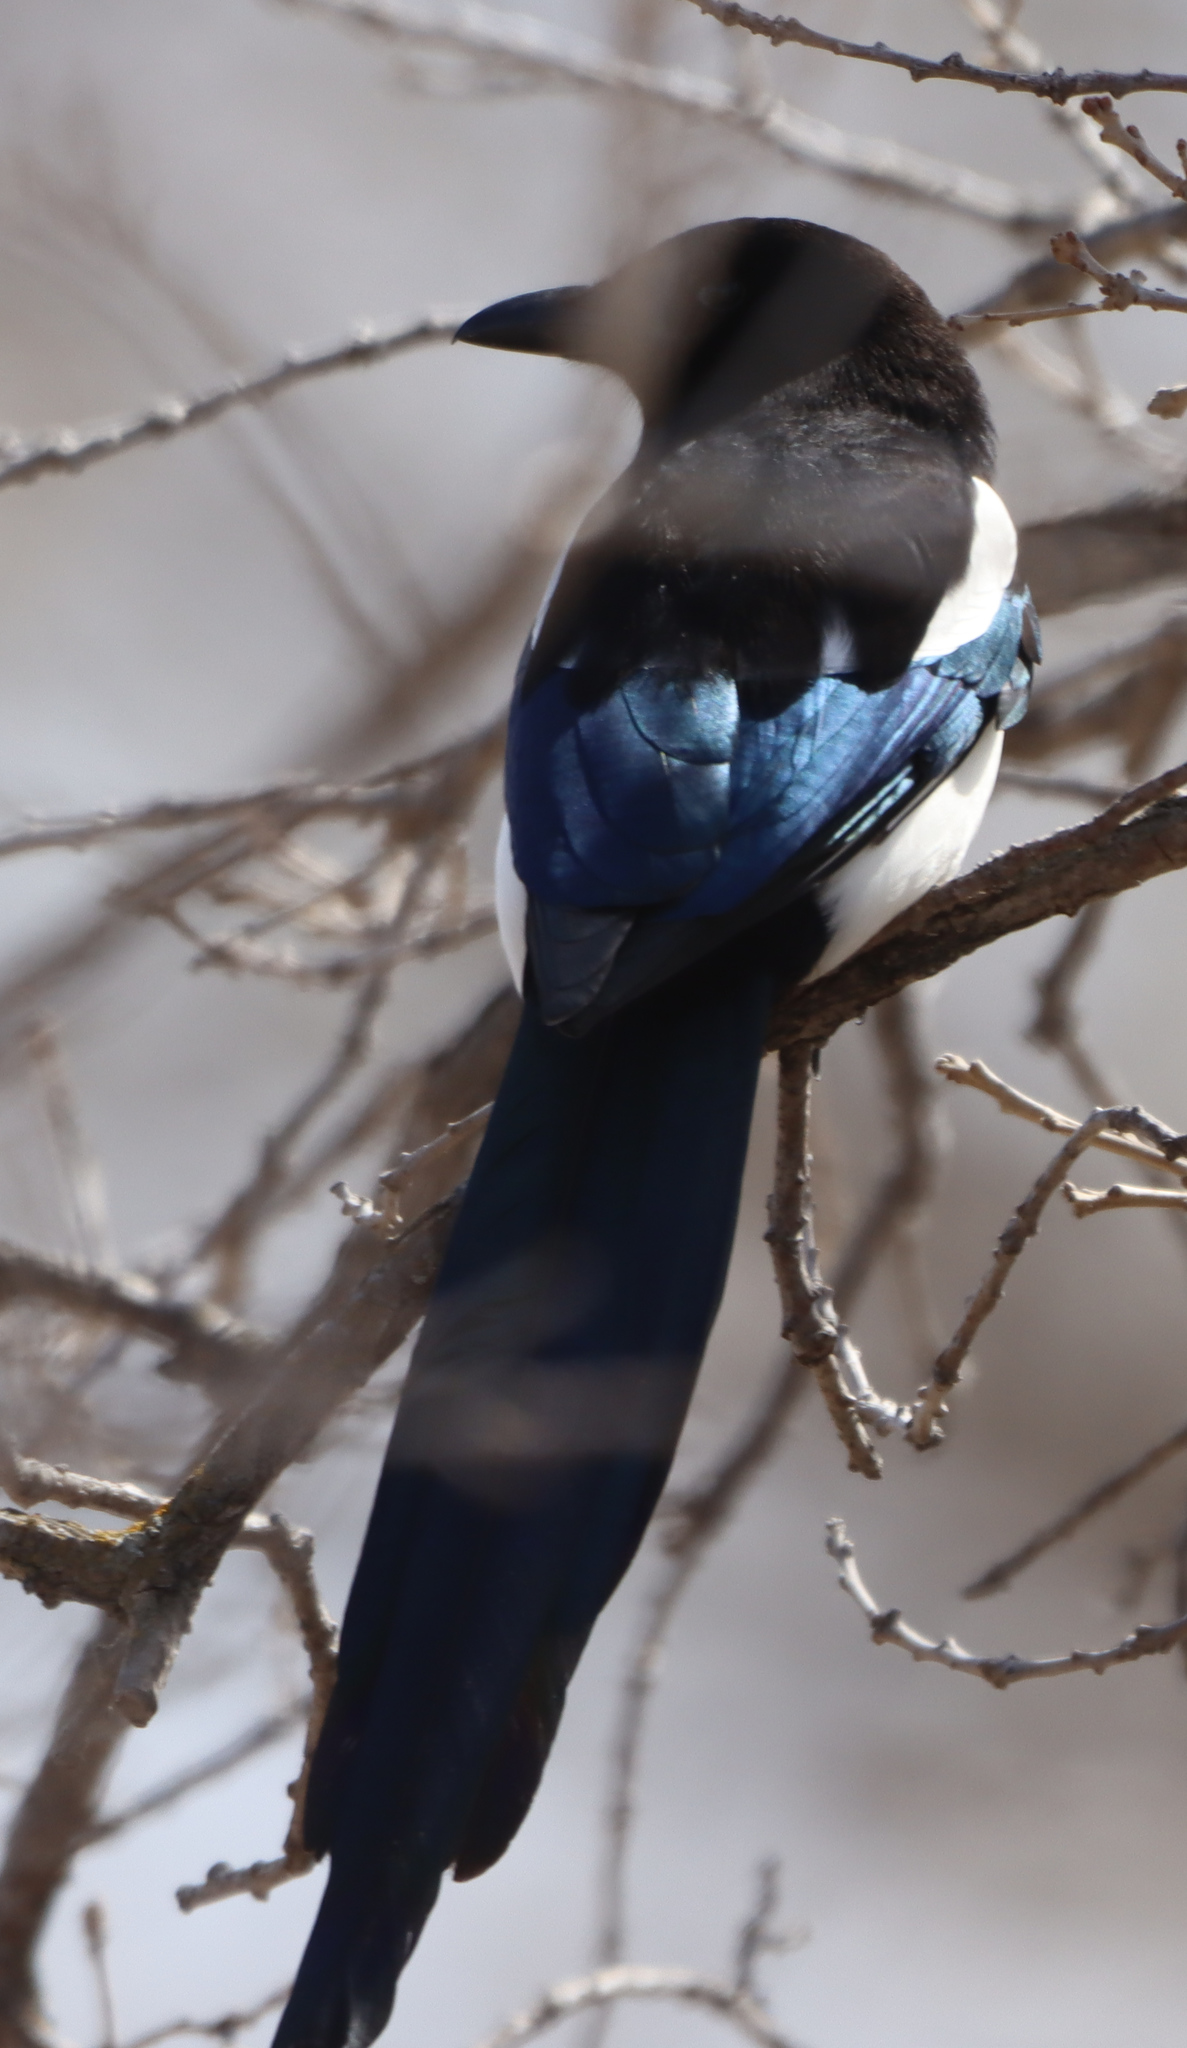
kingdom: Animalia
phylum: Chordata
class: Aves
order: Passeriformes
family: Corvidae
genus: Pica
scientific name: Pica hudsonia
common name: Black-billed magpie
